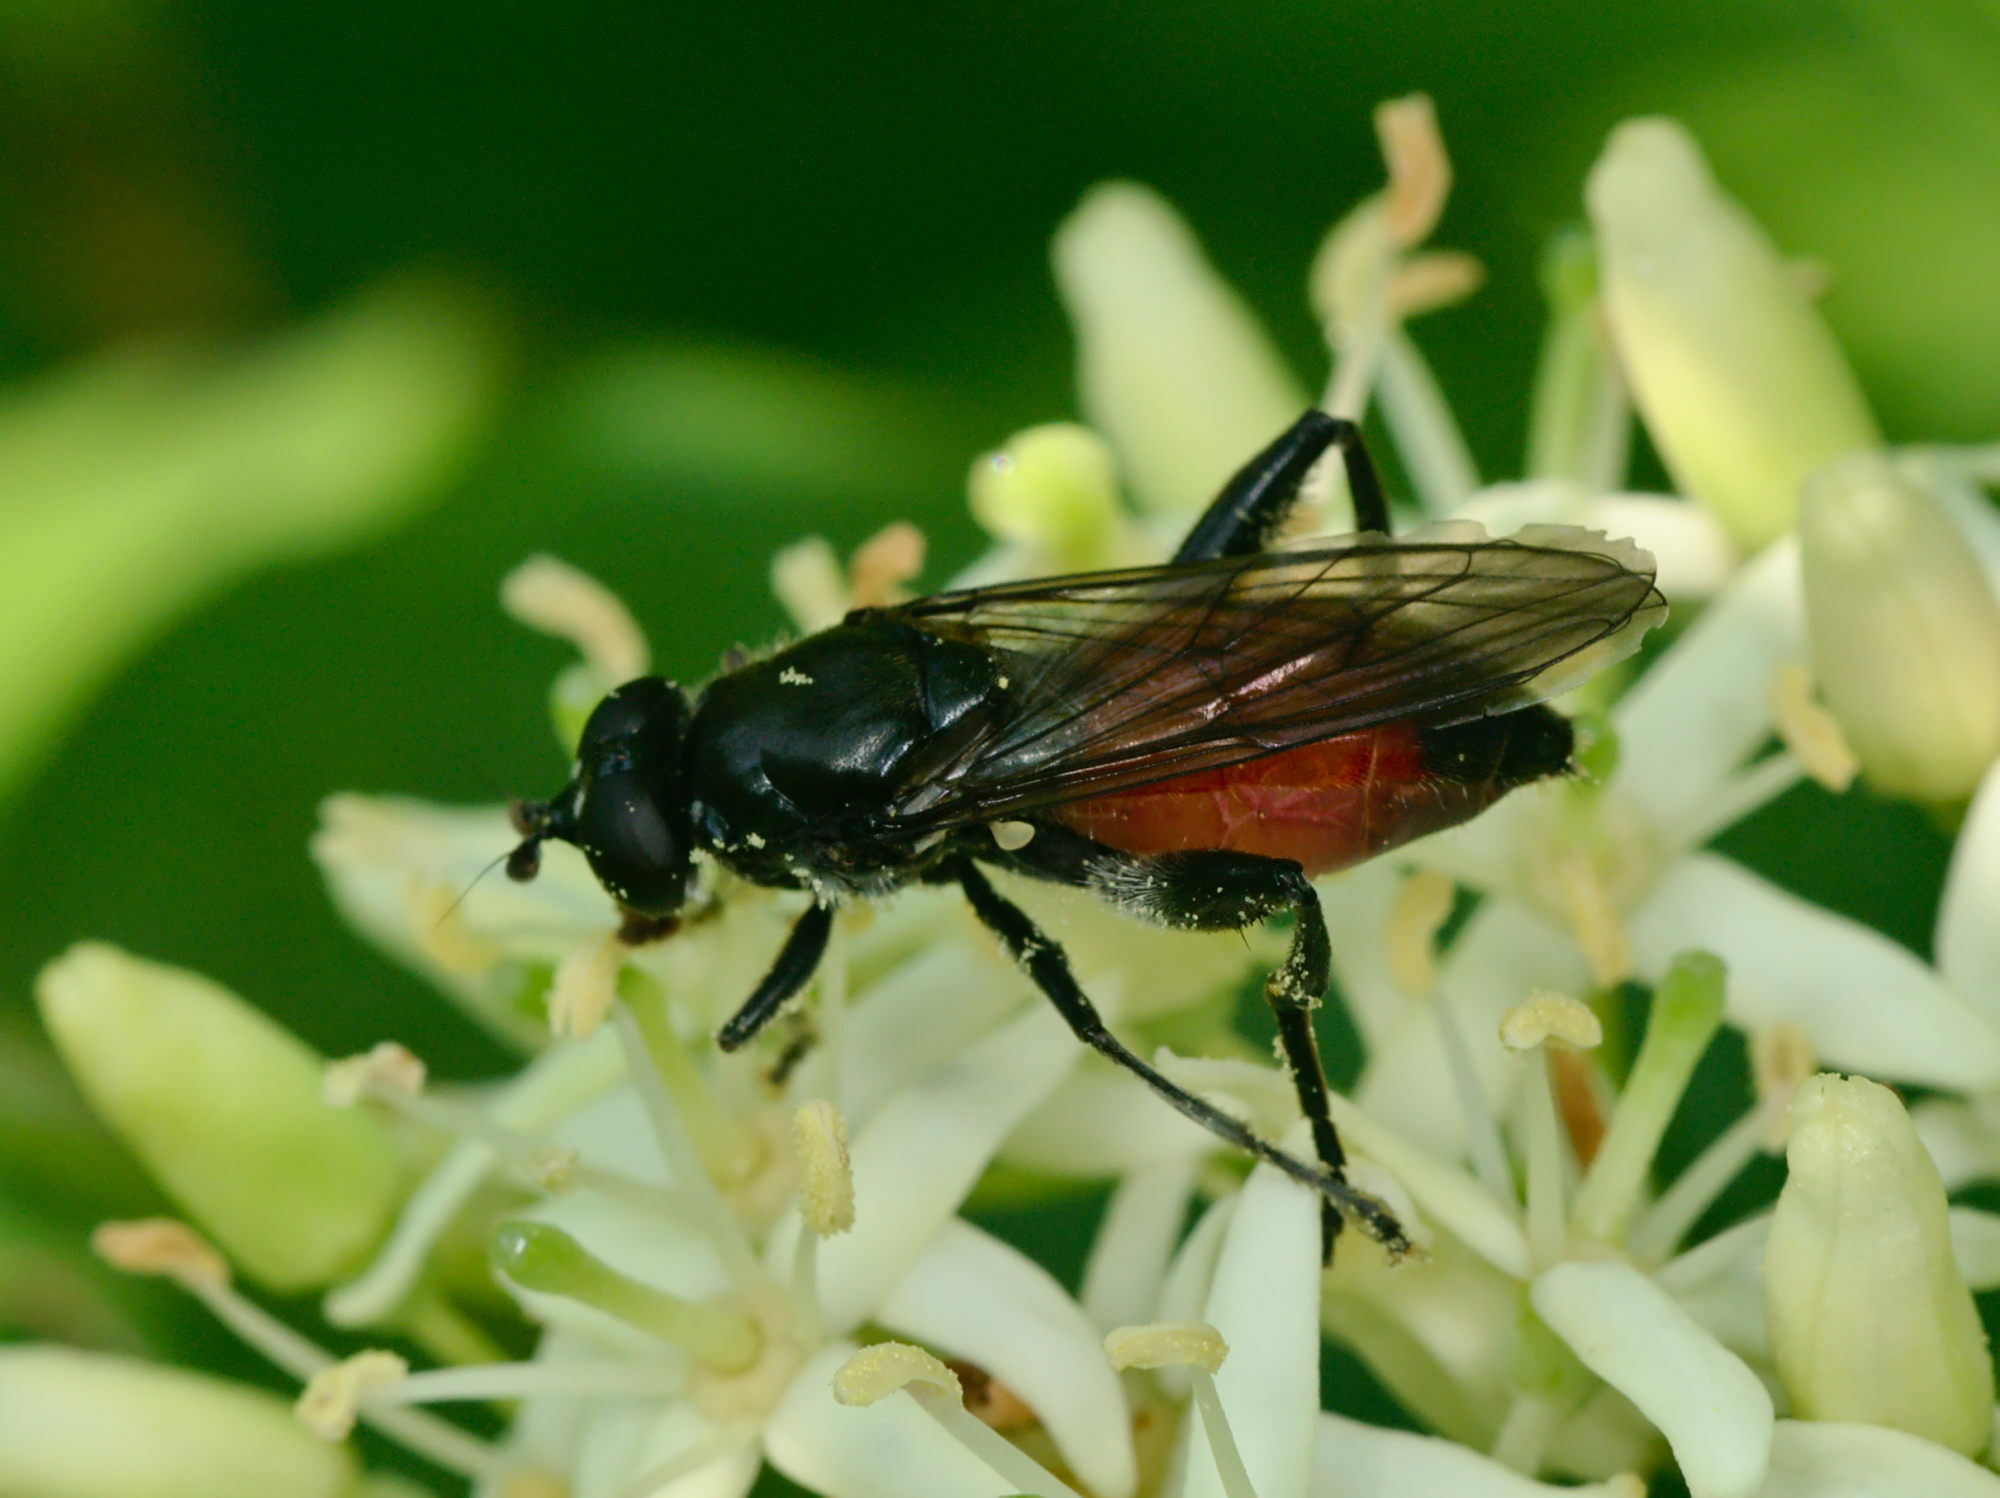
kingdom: Animalia
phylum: Arthropoda
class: Insecta
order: Diptera
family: Syrphidae
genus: Brachypalpoides
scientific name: Brachypalpoides lenta
